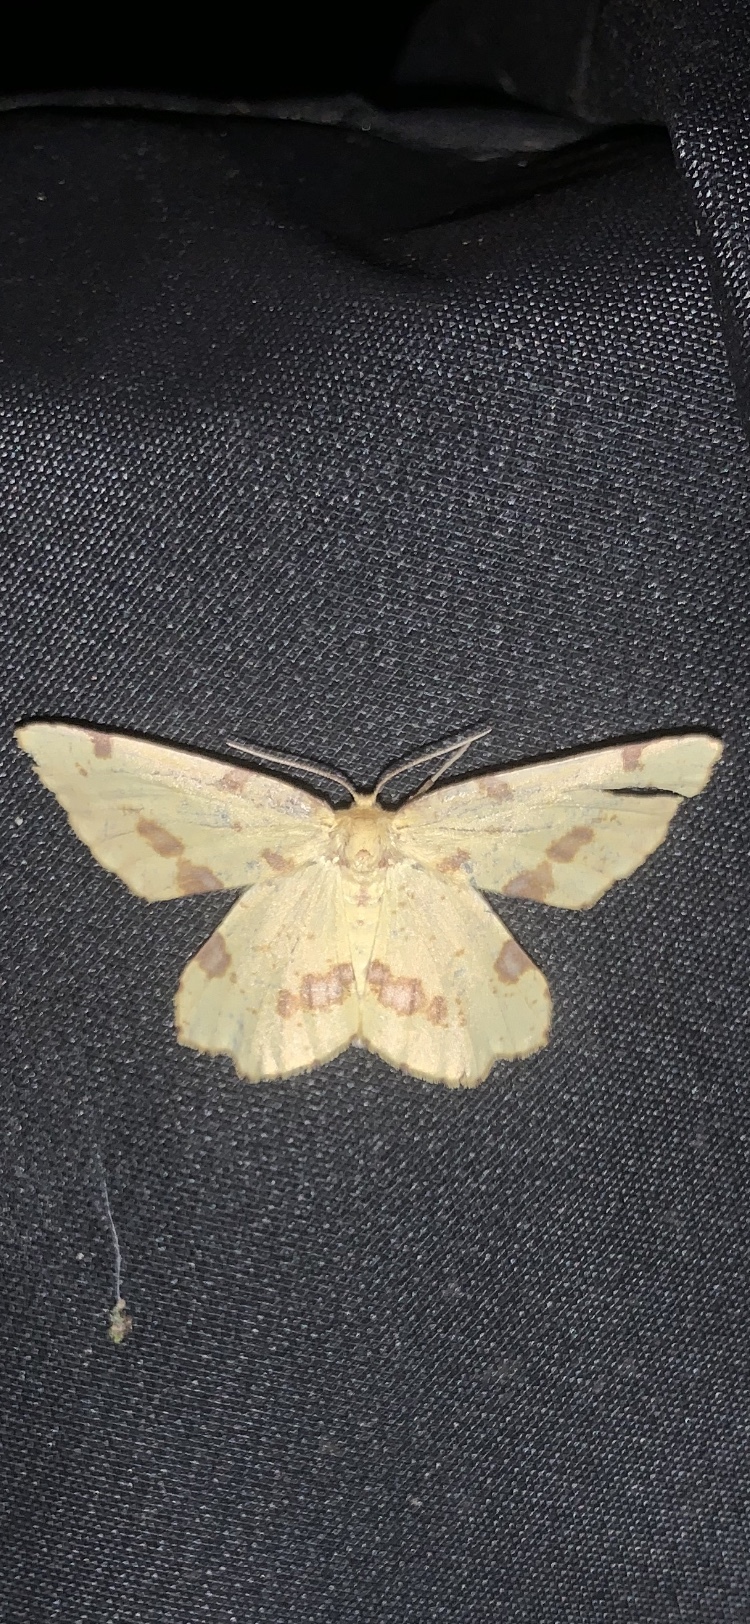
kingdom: Animalia
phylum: Arthropoda
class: Insecta
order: Lepidoptera
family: Geometridae
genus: Xanthotype
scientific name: Xanthotype
